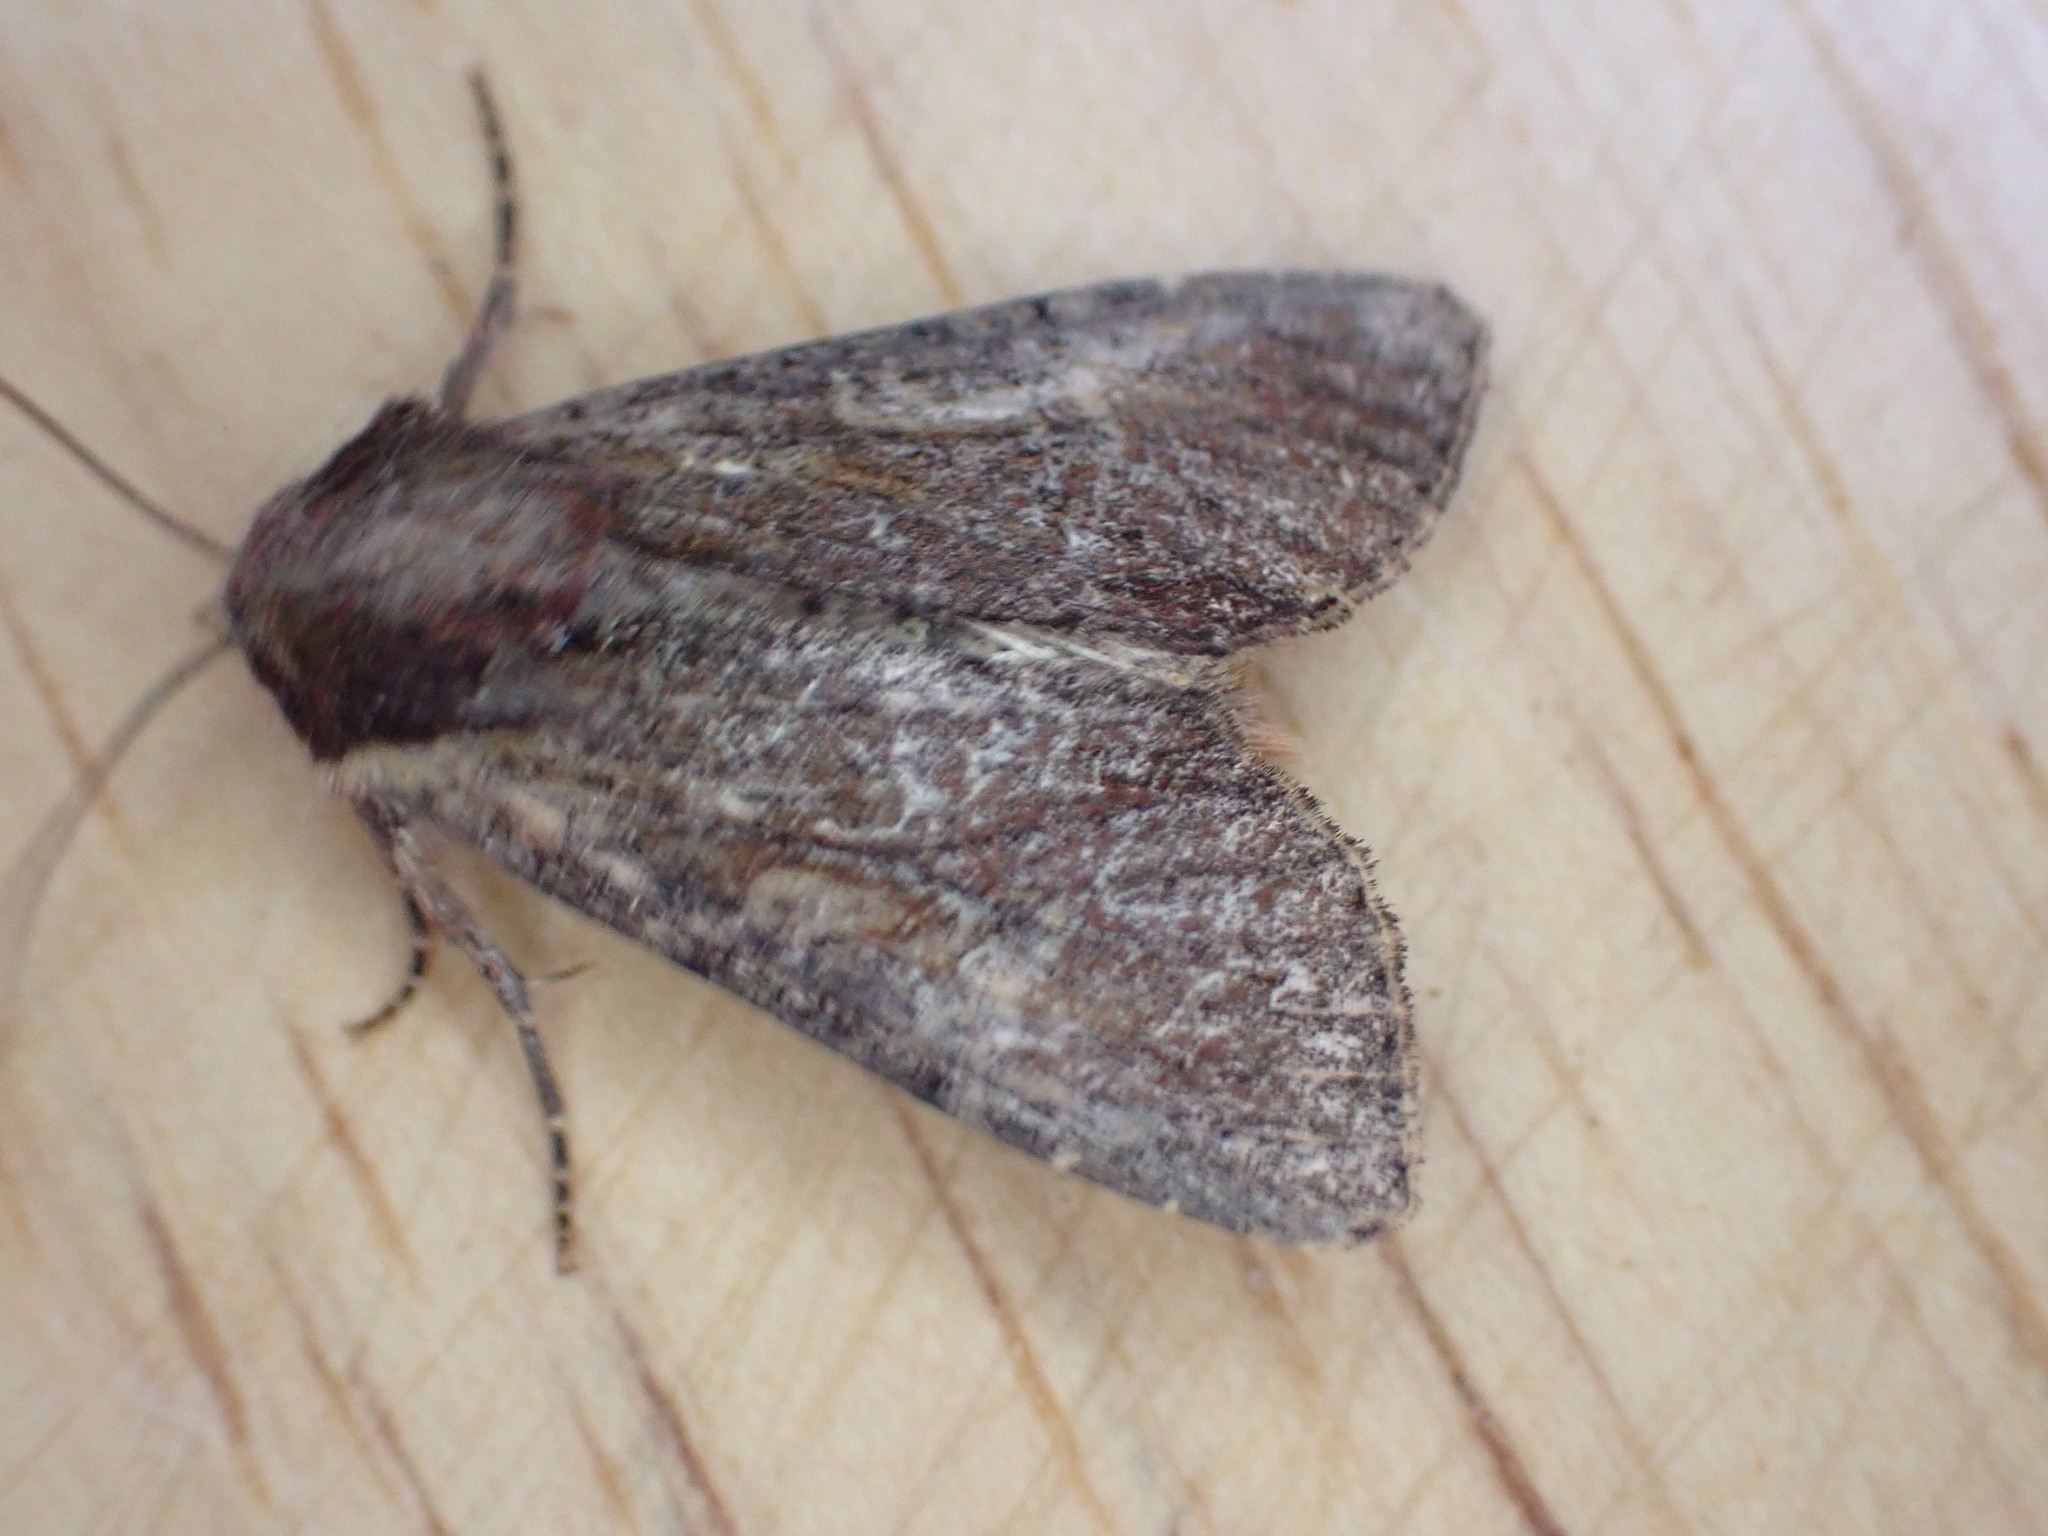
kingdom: Animalia
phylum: Arthropoda
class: Insecta
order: Lepidoptera
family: Noctuidae
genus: Apamea
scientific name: Apamea crenata
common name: Clouded-bordered brindle
